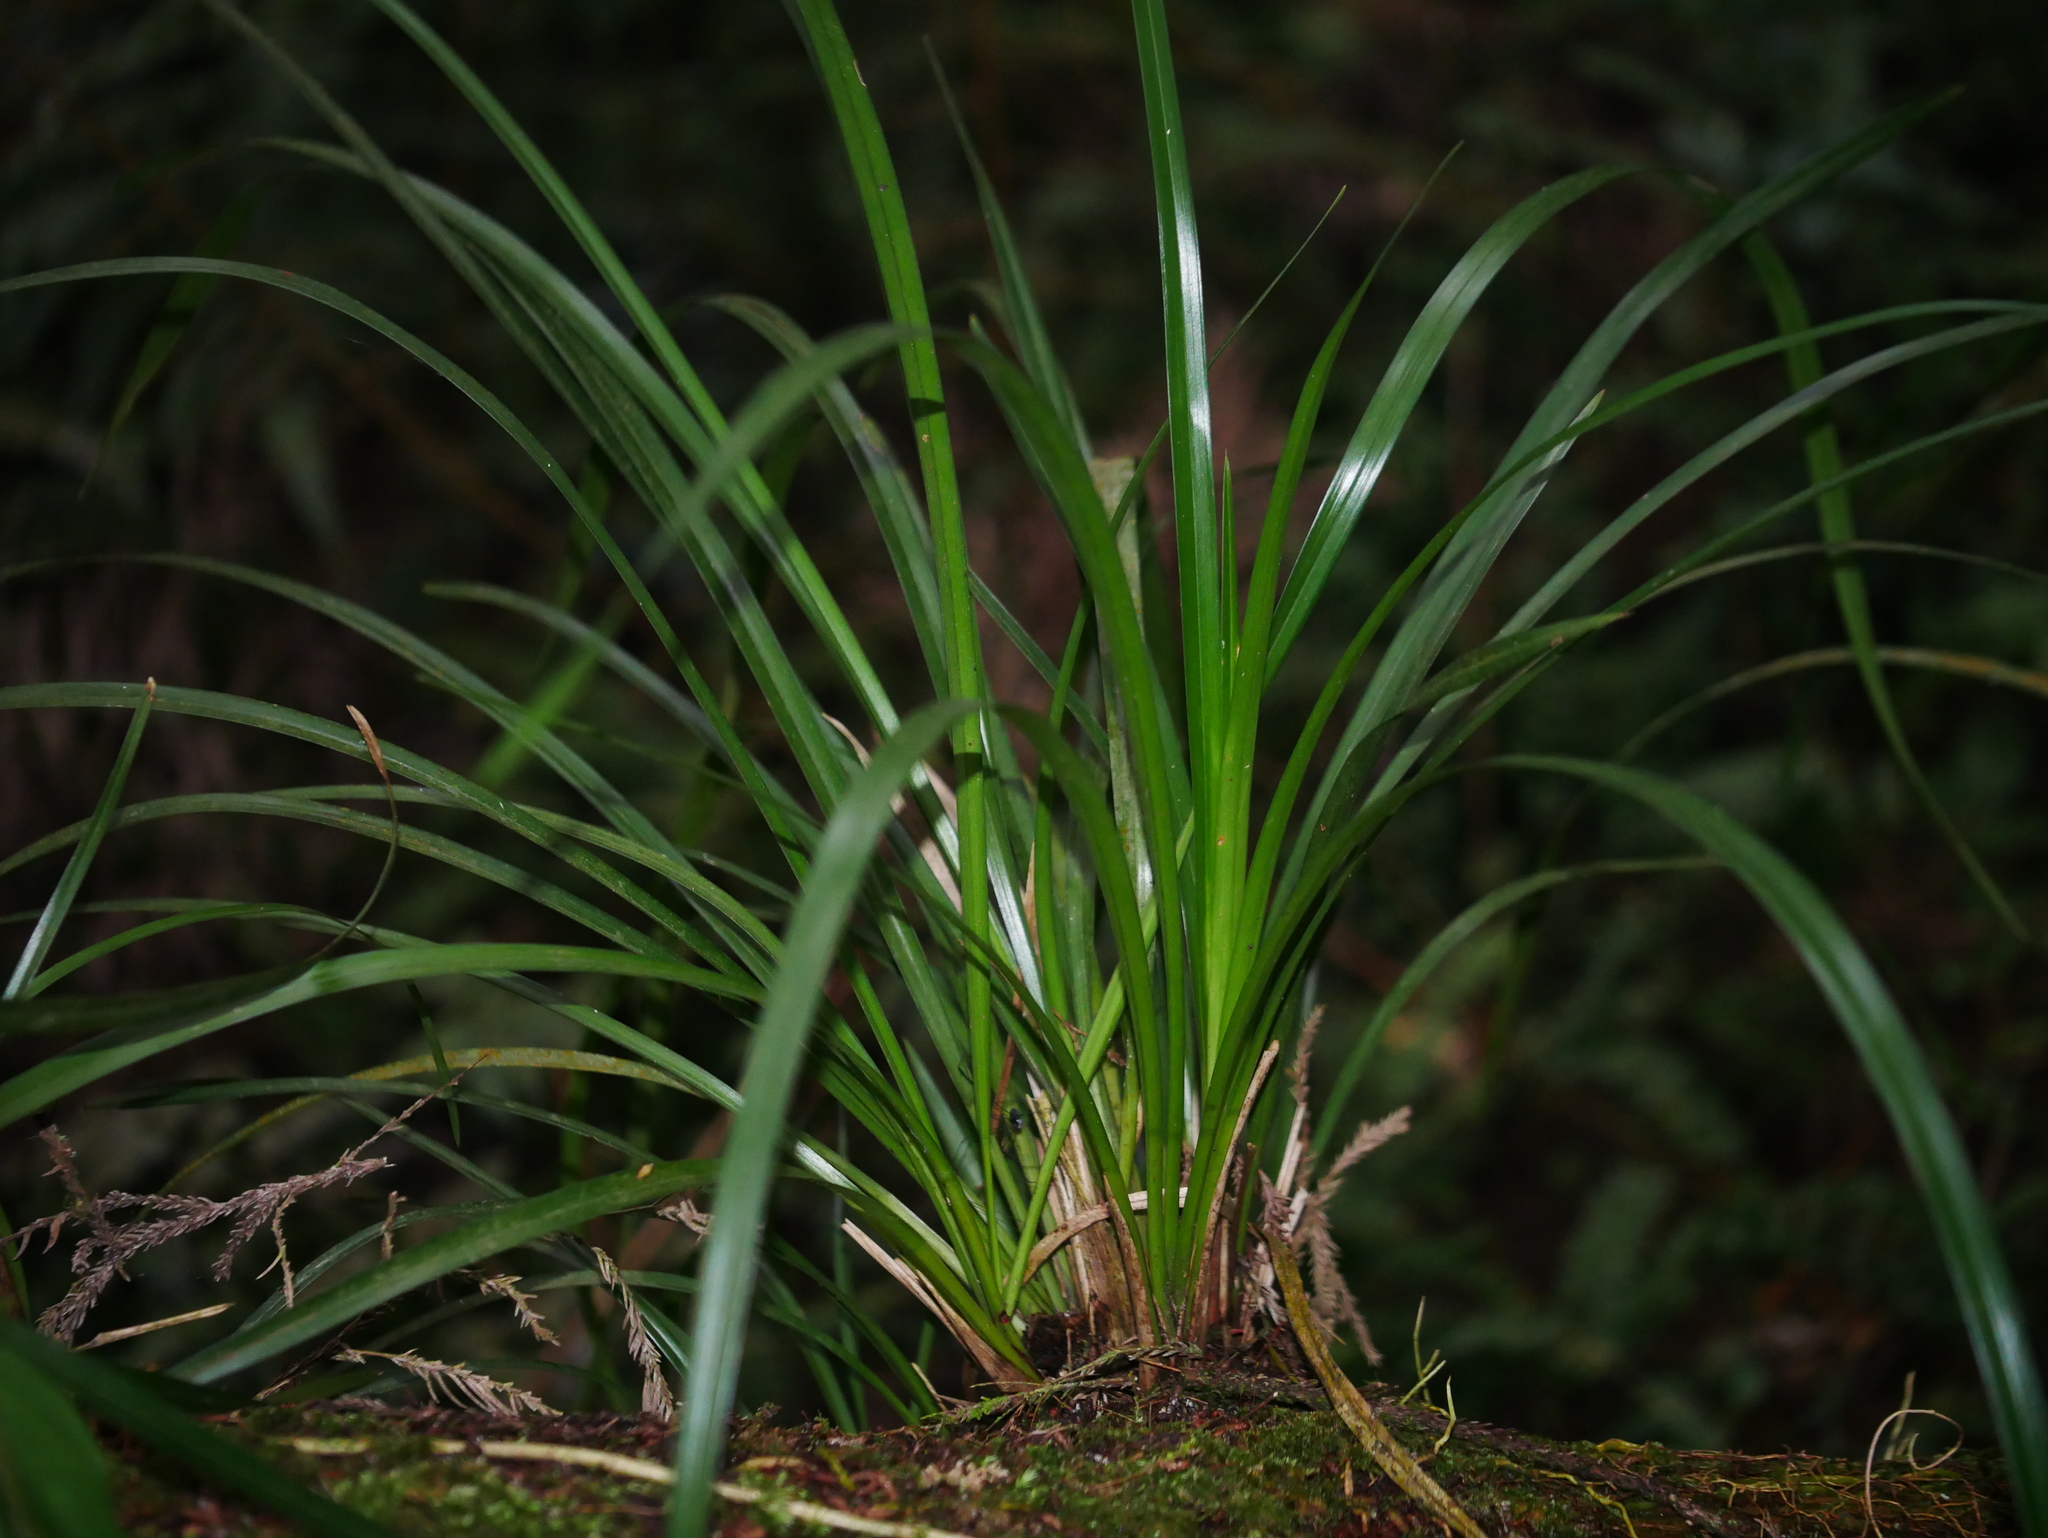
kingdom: Plantae
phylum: Tracheophyta
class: Liliopsida
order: Asparagales
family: Orchidaceae
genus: Cymbidium
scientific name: Cymbidium dayanum
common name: Orchid
